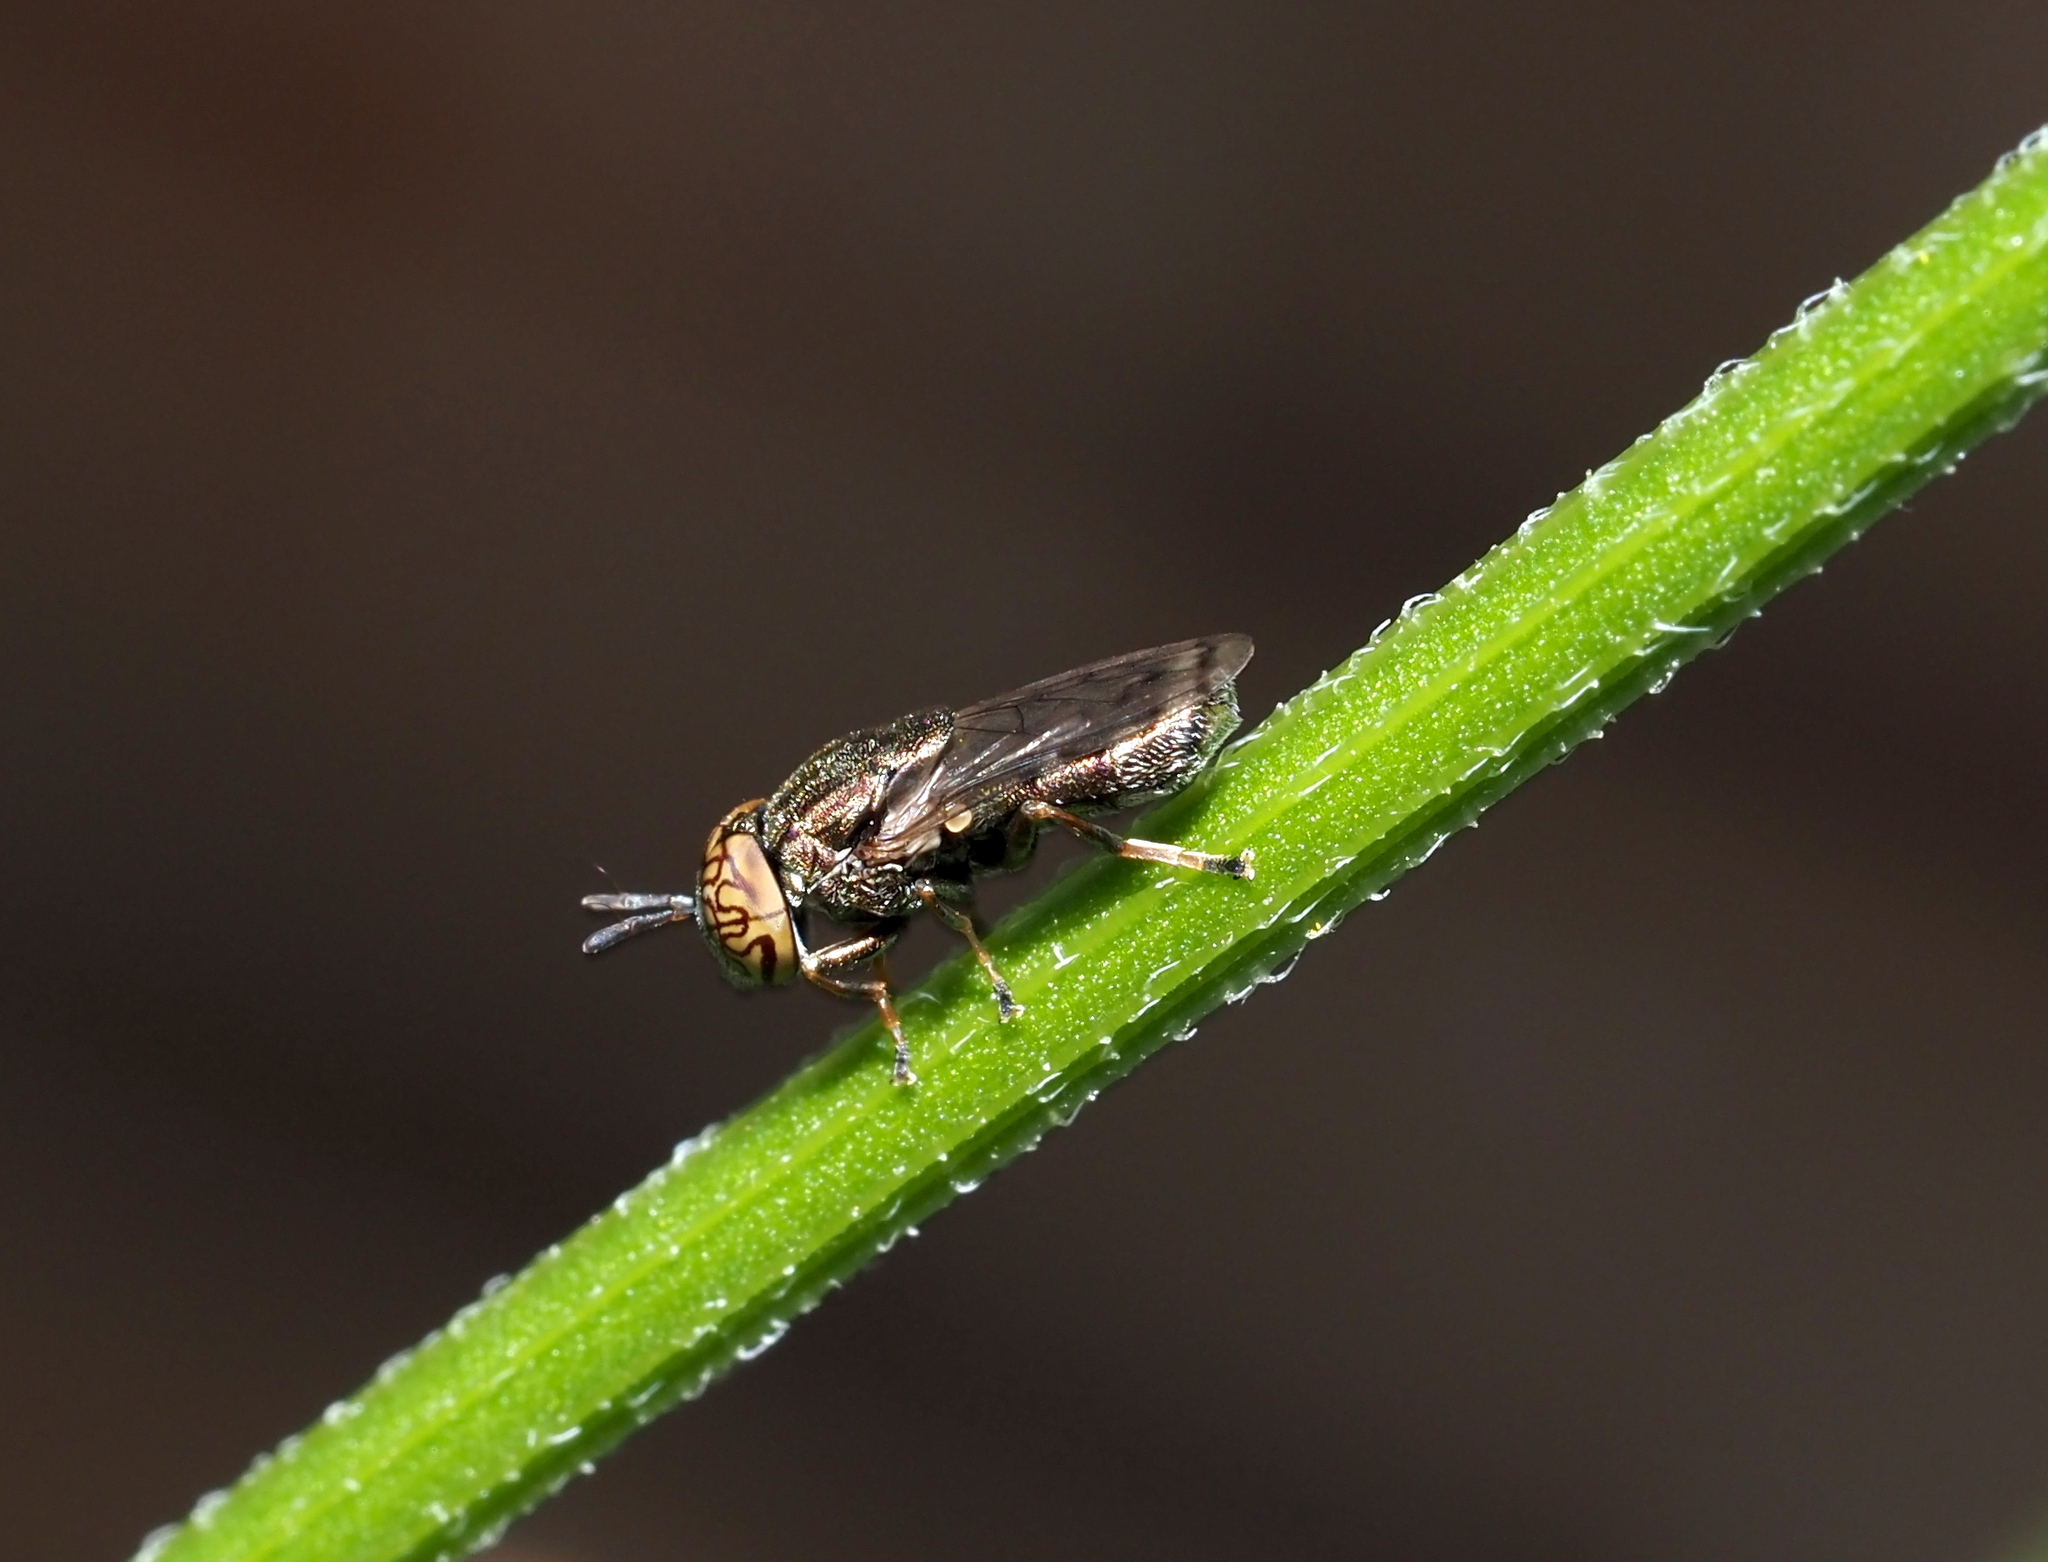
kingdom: Animalia
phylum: Arthropoda
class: Insecta
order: Diptera
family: Syrphidae
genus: Orthonevra
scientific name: Orthonevra nitida
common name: Wavy mucksucker
